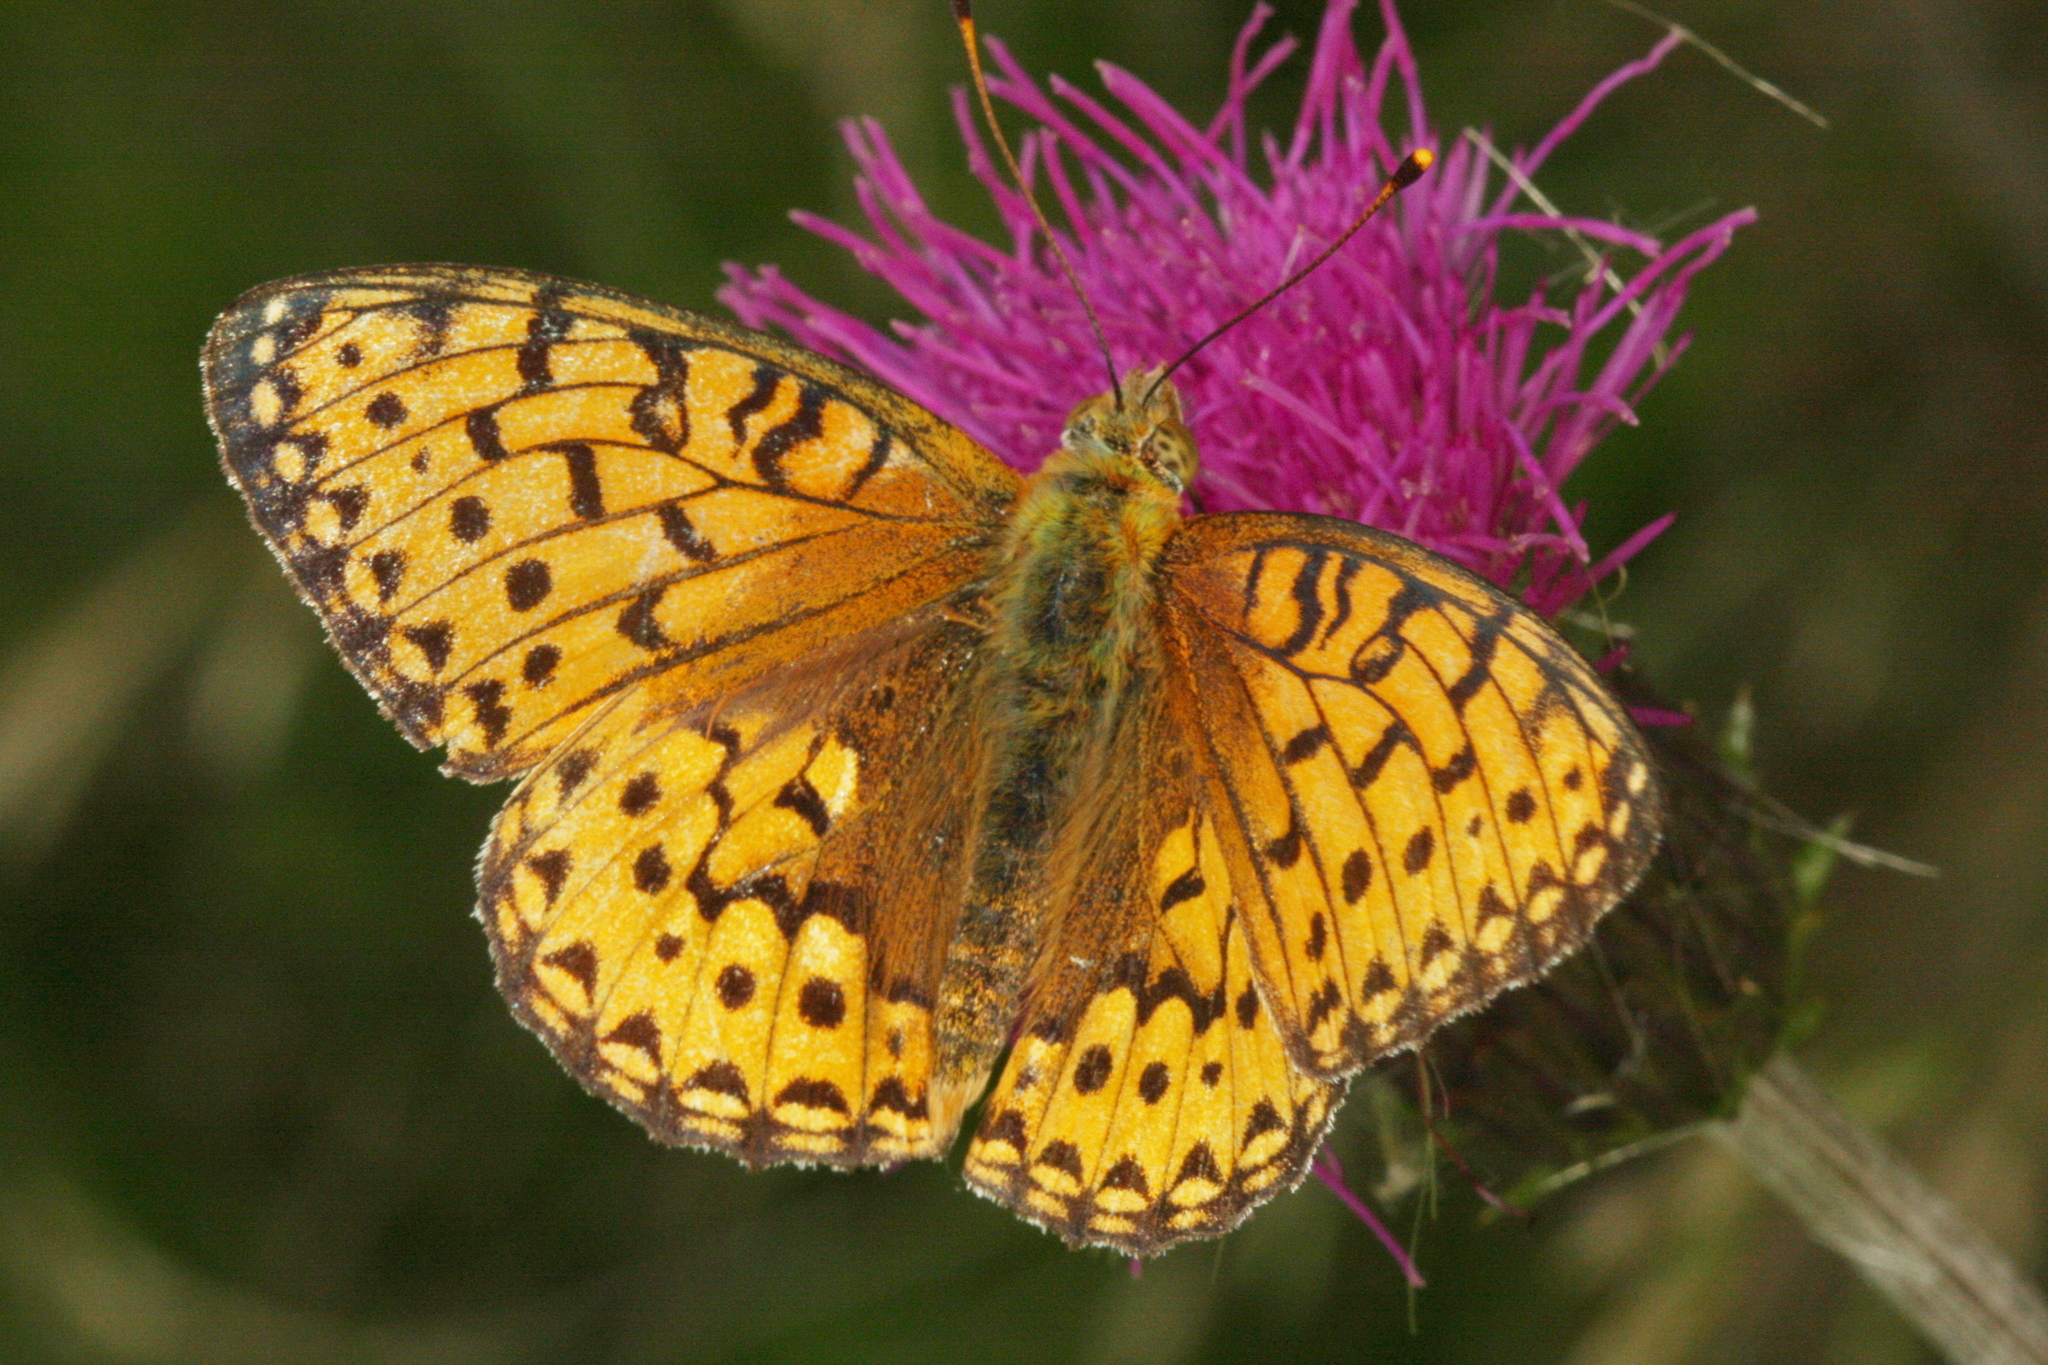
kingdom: Animalia
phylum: Arthropoda
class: Insecta
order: Lepidoptera
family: Nymphalidae
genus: Speyeria
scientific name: Speyeria aglaja
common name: Dark green fritillary
